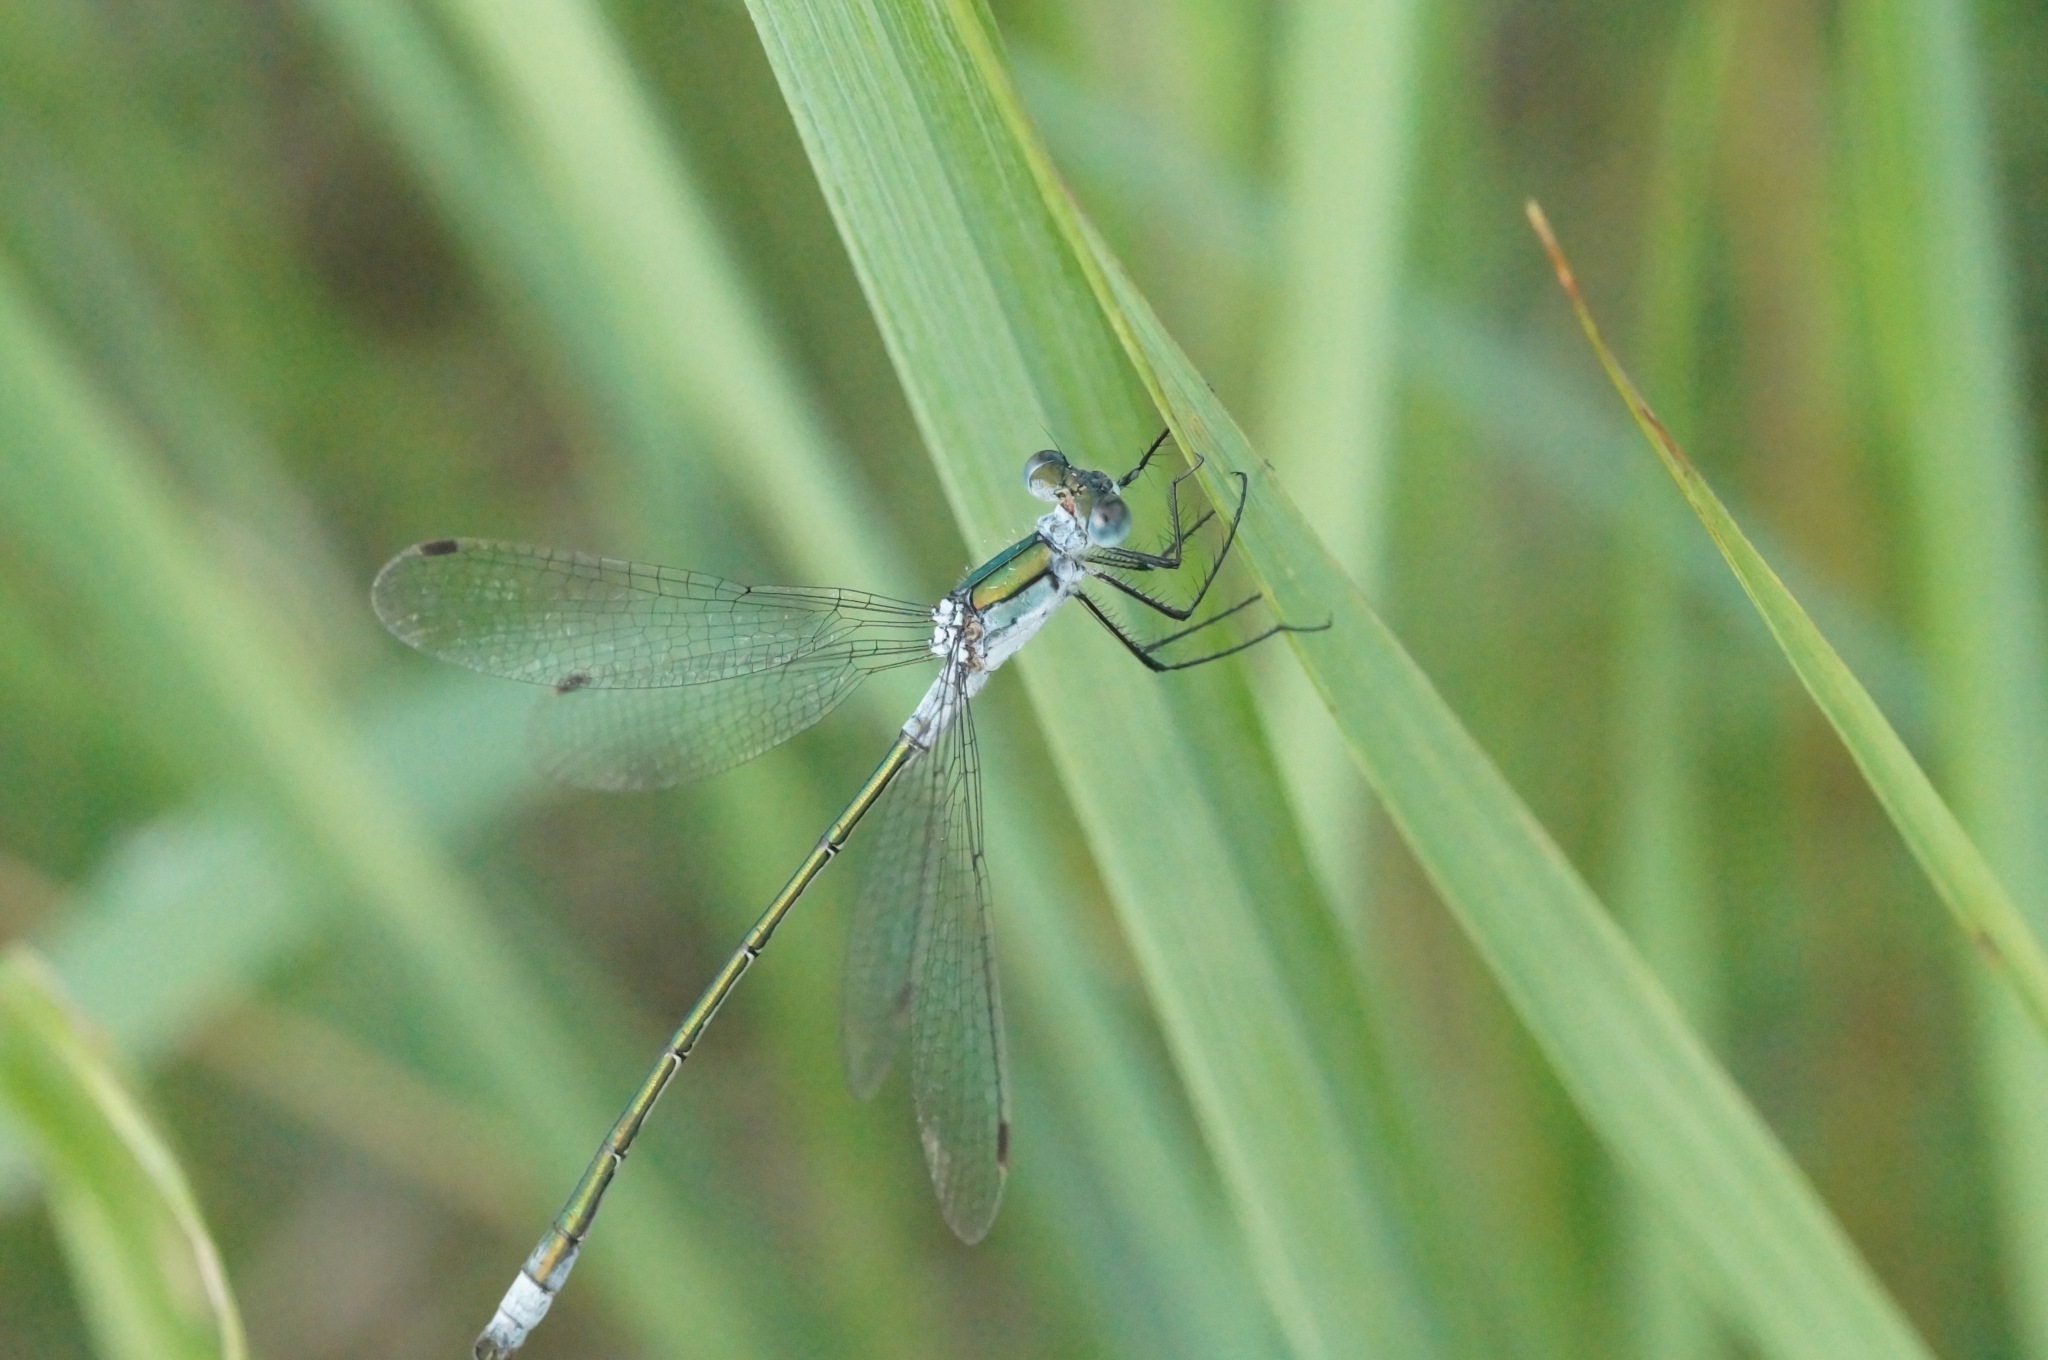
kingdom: Animalia
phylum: Arthropoda
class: Insecta
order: Odonata
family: Lestidae
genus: Lestes
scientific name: Lestes sponsa
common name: Common spreadwing
